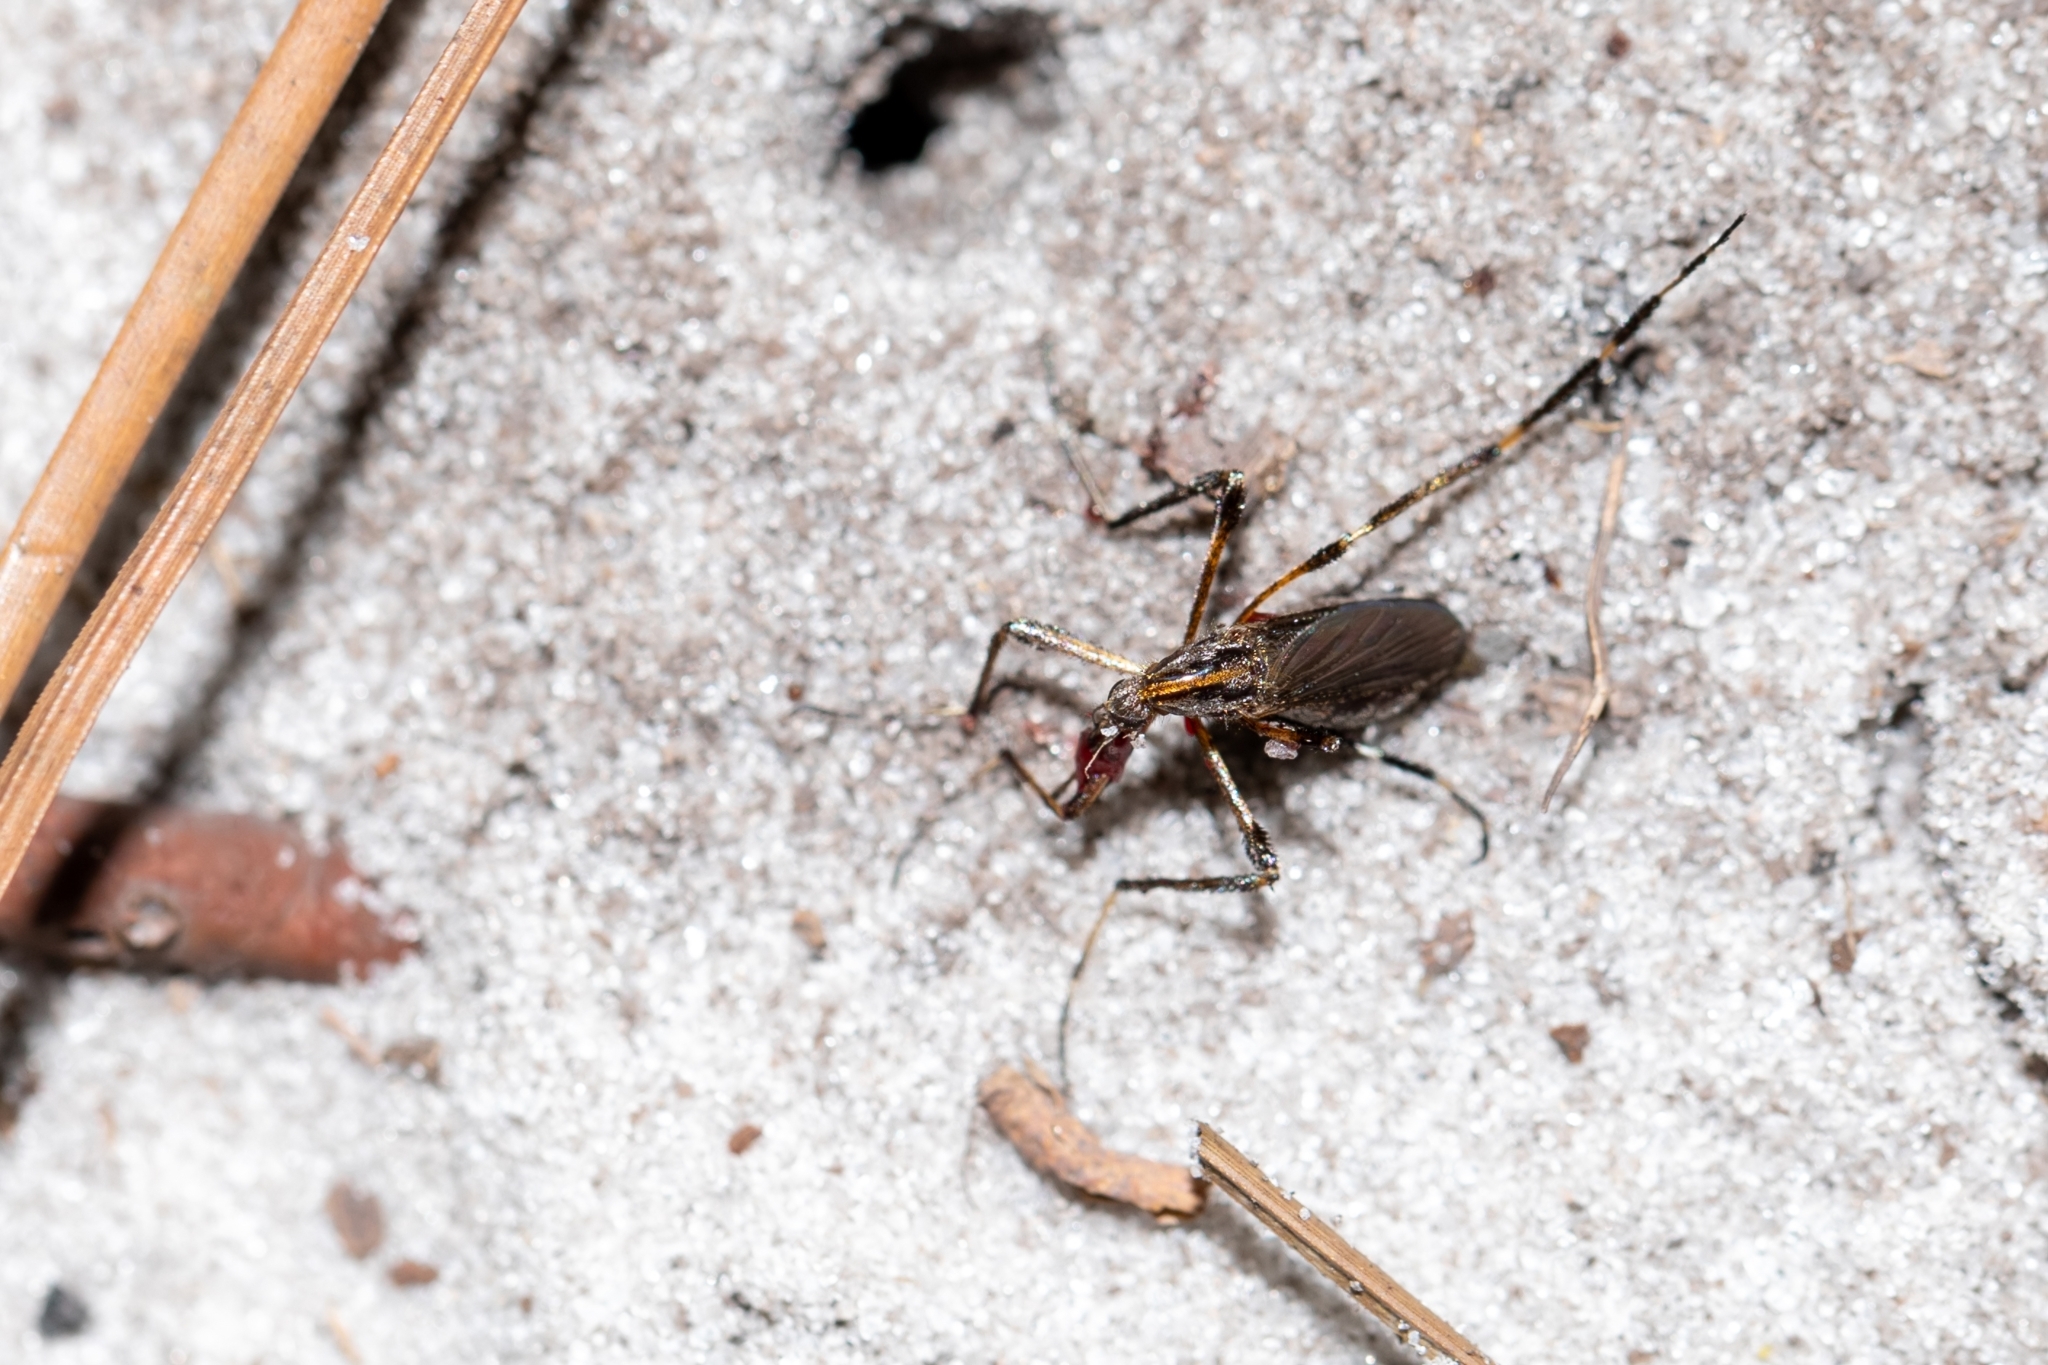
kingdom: Animalia
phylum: Arthropoda
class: Insecta
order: Diptera
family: Culicidae
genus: Psorophora
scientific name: Psorophora ciliata
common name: Gallinipper
